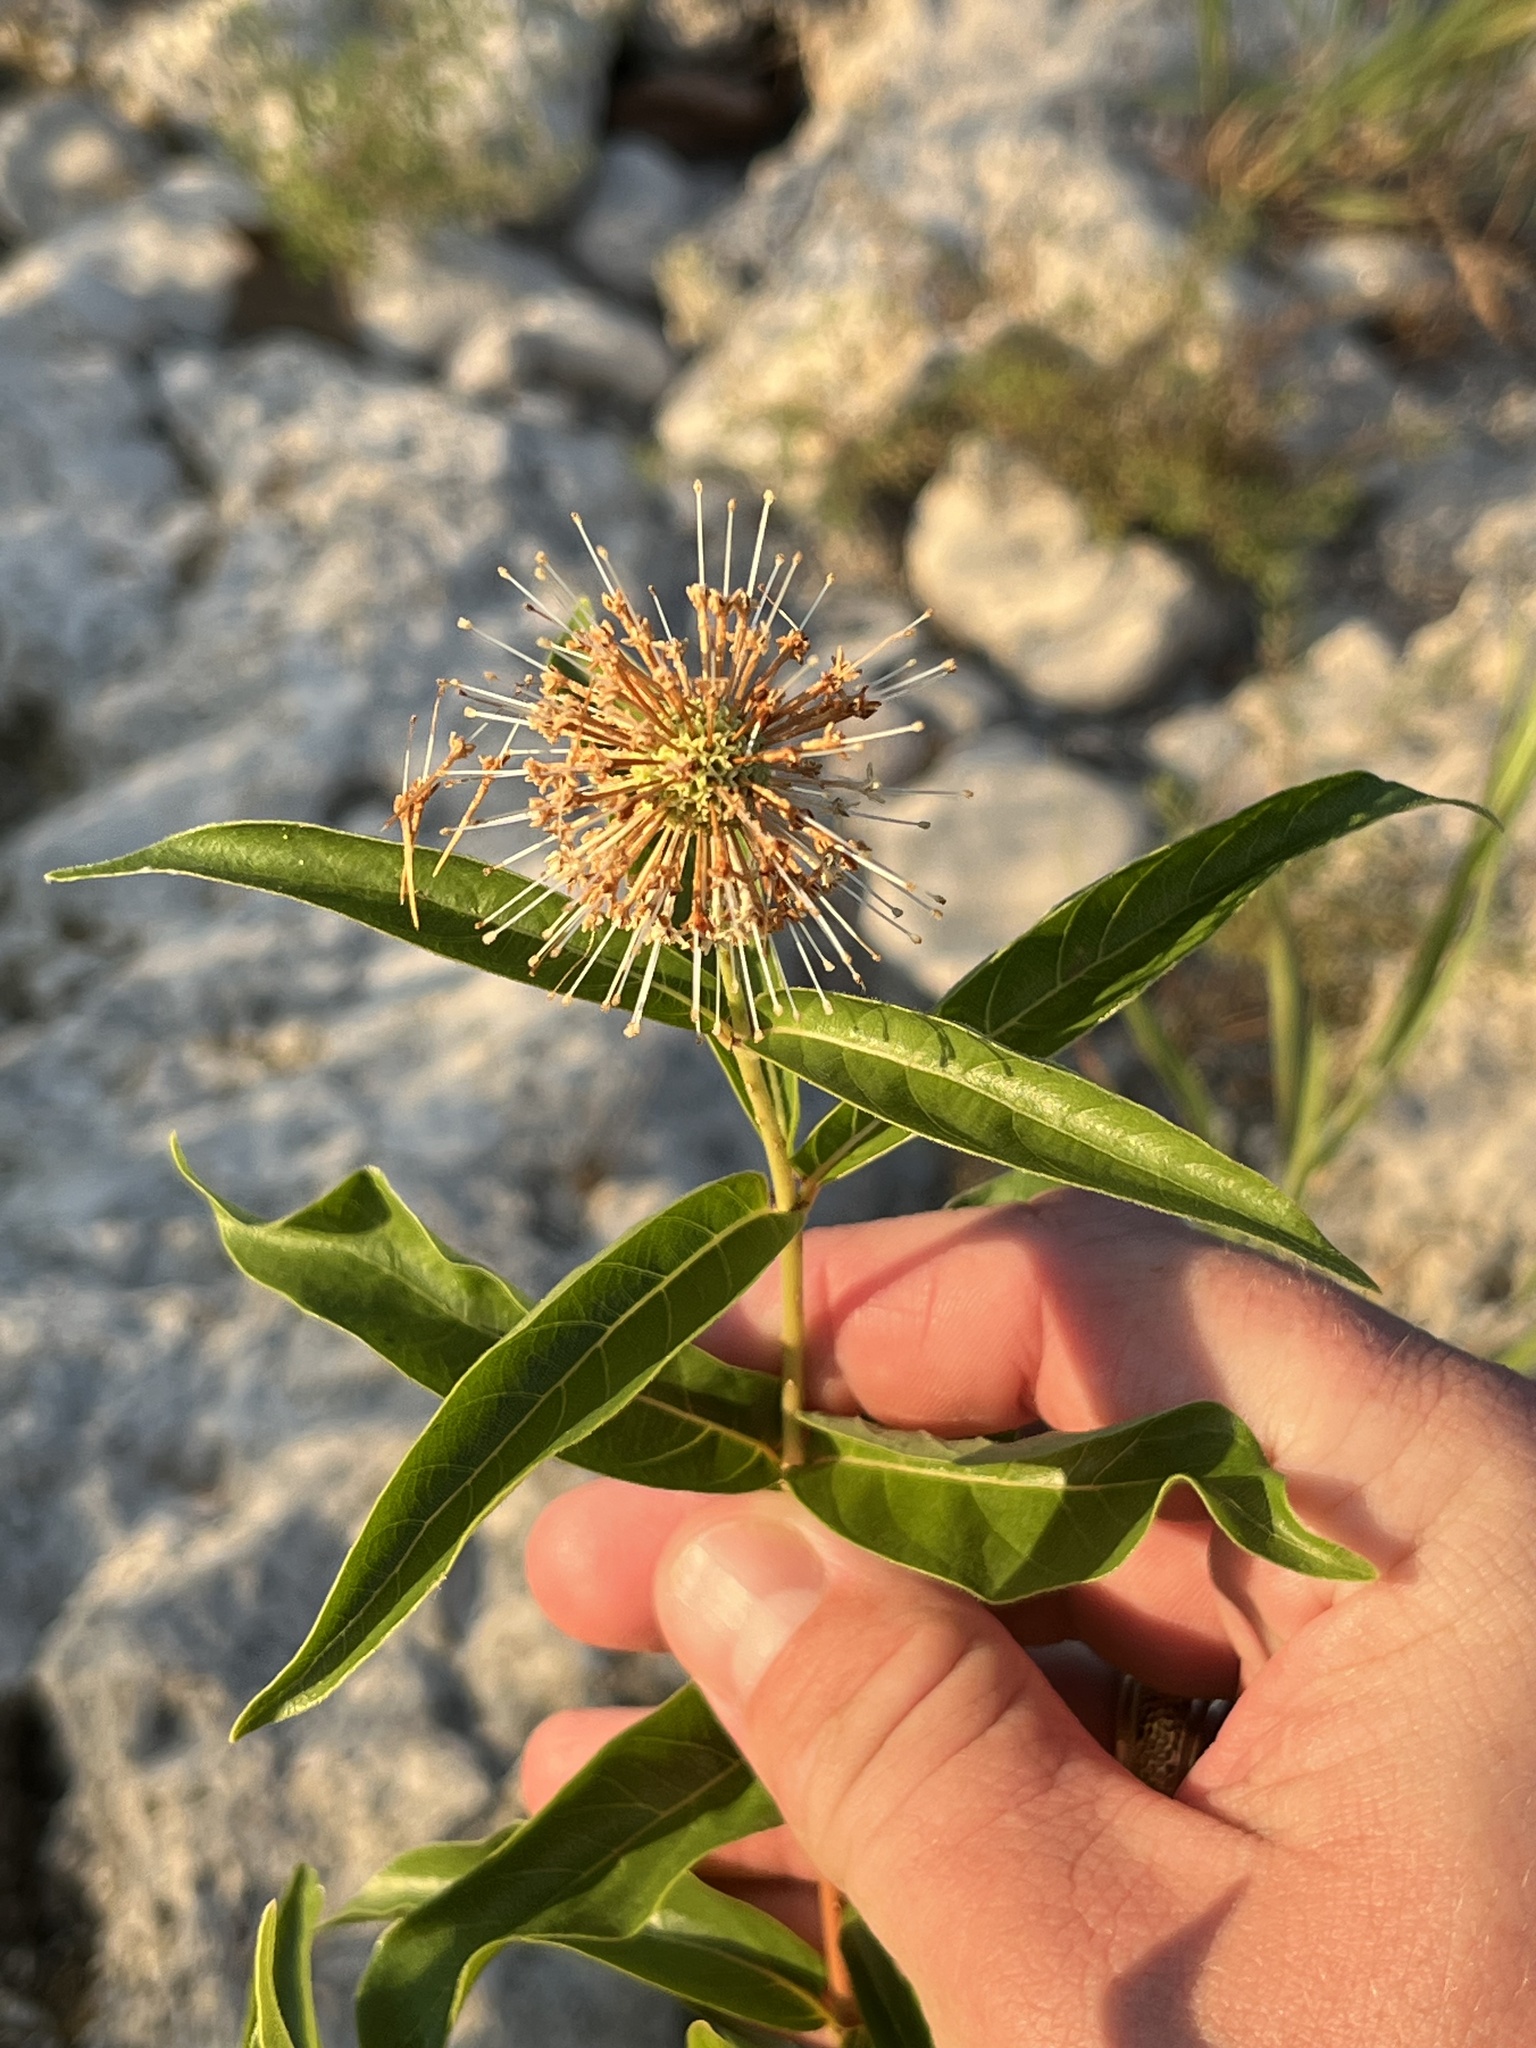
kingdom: Plantae
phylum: Tracheophyta
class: Magnoliopsida
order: Gentianales
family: Rubiaceae
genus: Cephalanthus
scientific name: Cephalanthus occidentalis
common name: Button-willow
